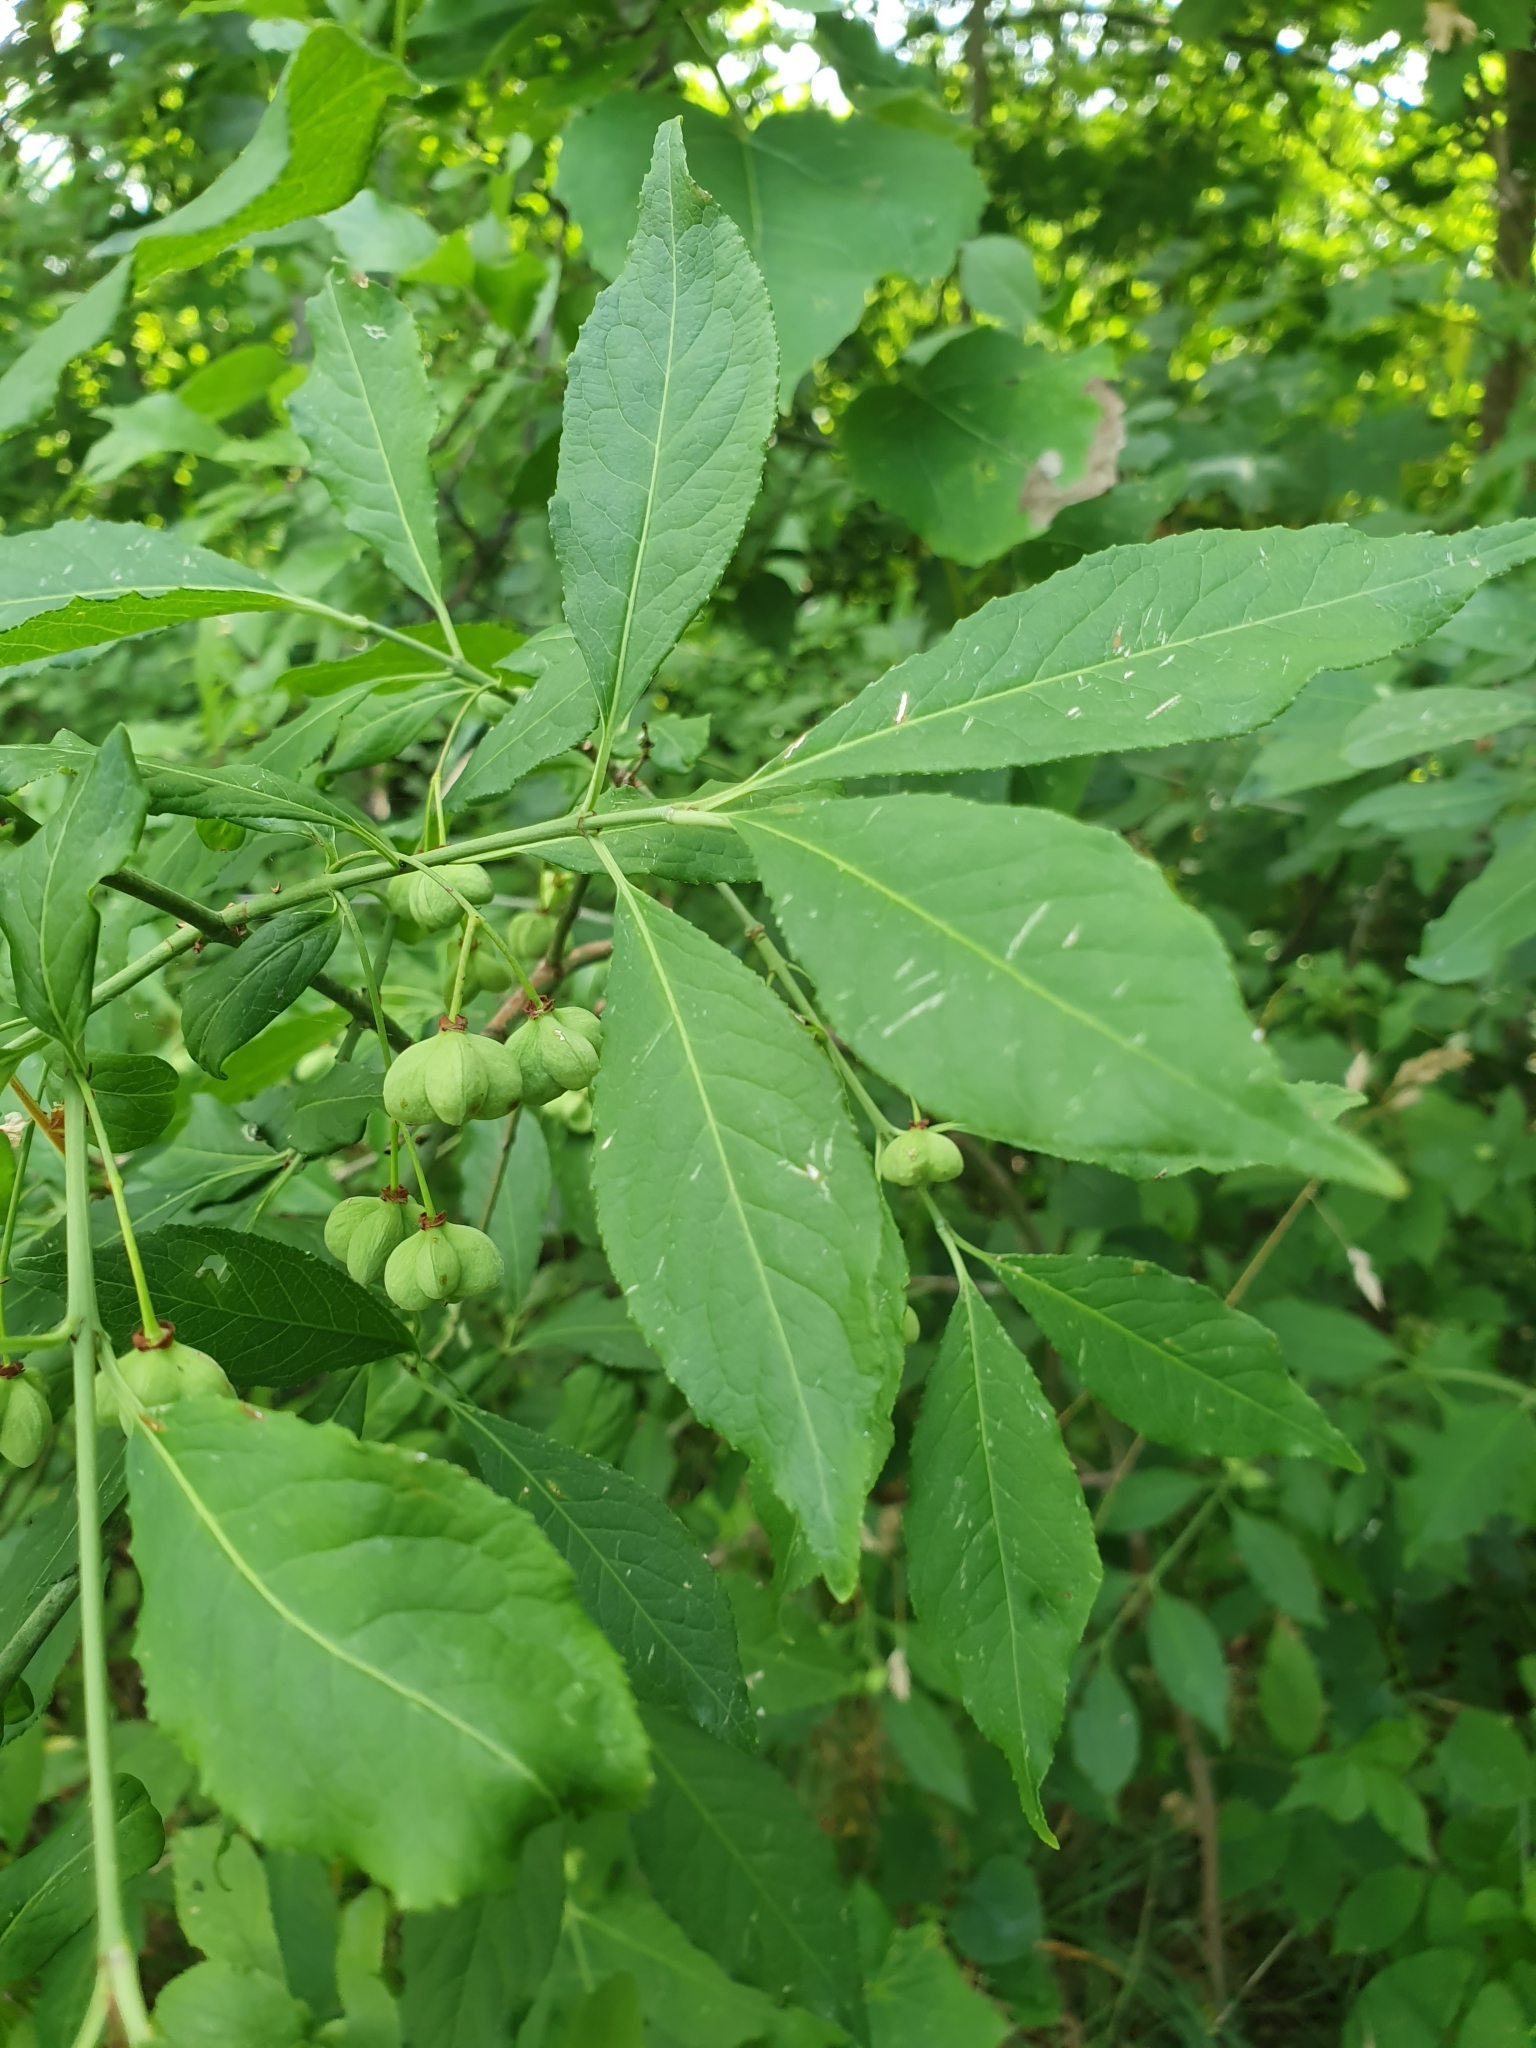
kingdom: Plantae
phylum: Tracheophyta
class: Magnoliopsida
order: Celastrales
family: Celastraceae
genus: Euonymus
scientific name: Euonymus europaeus
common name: Spindle
